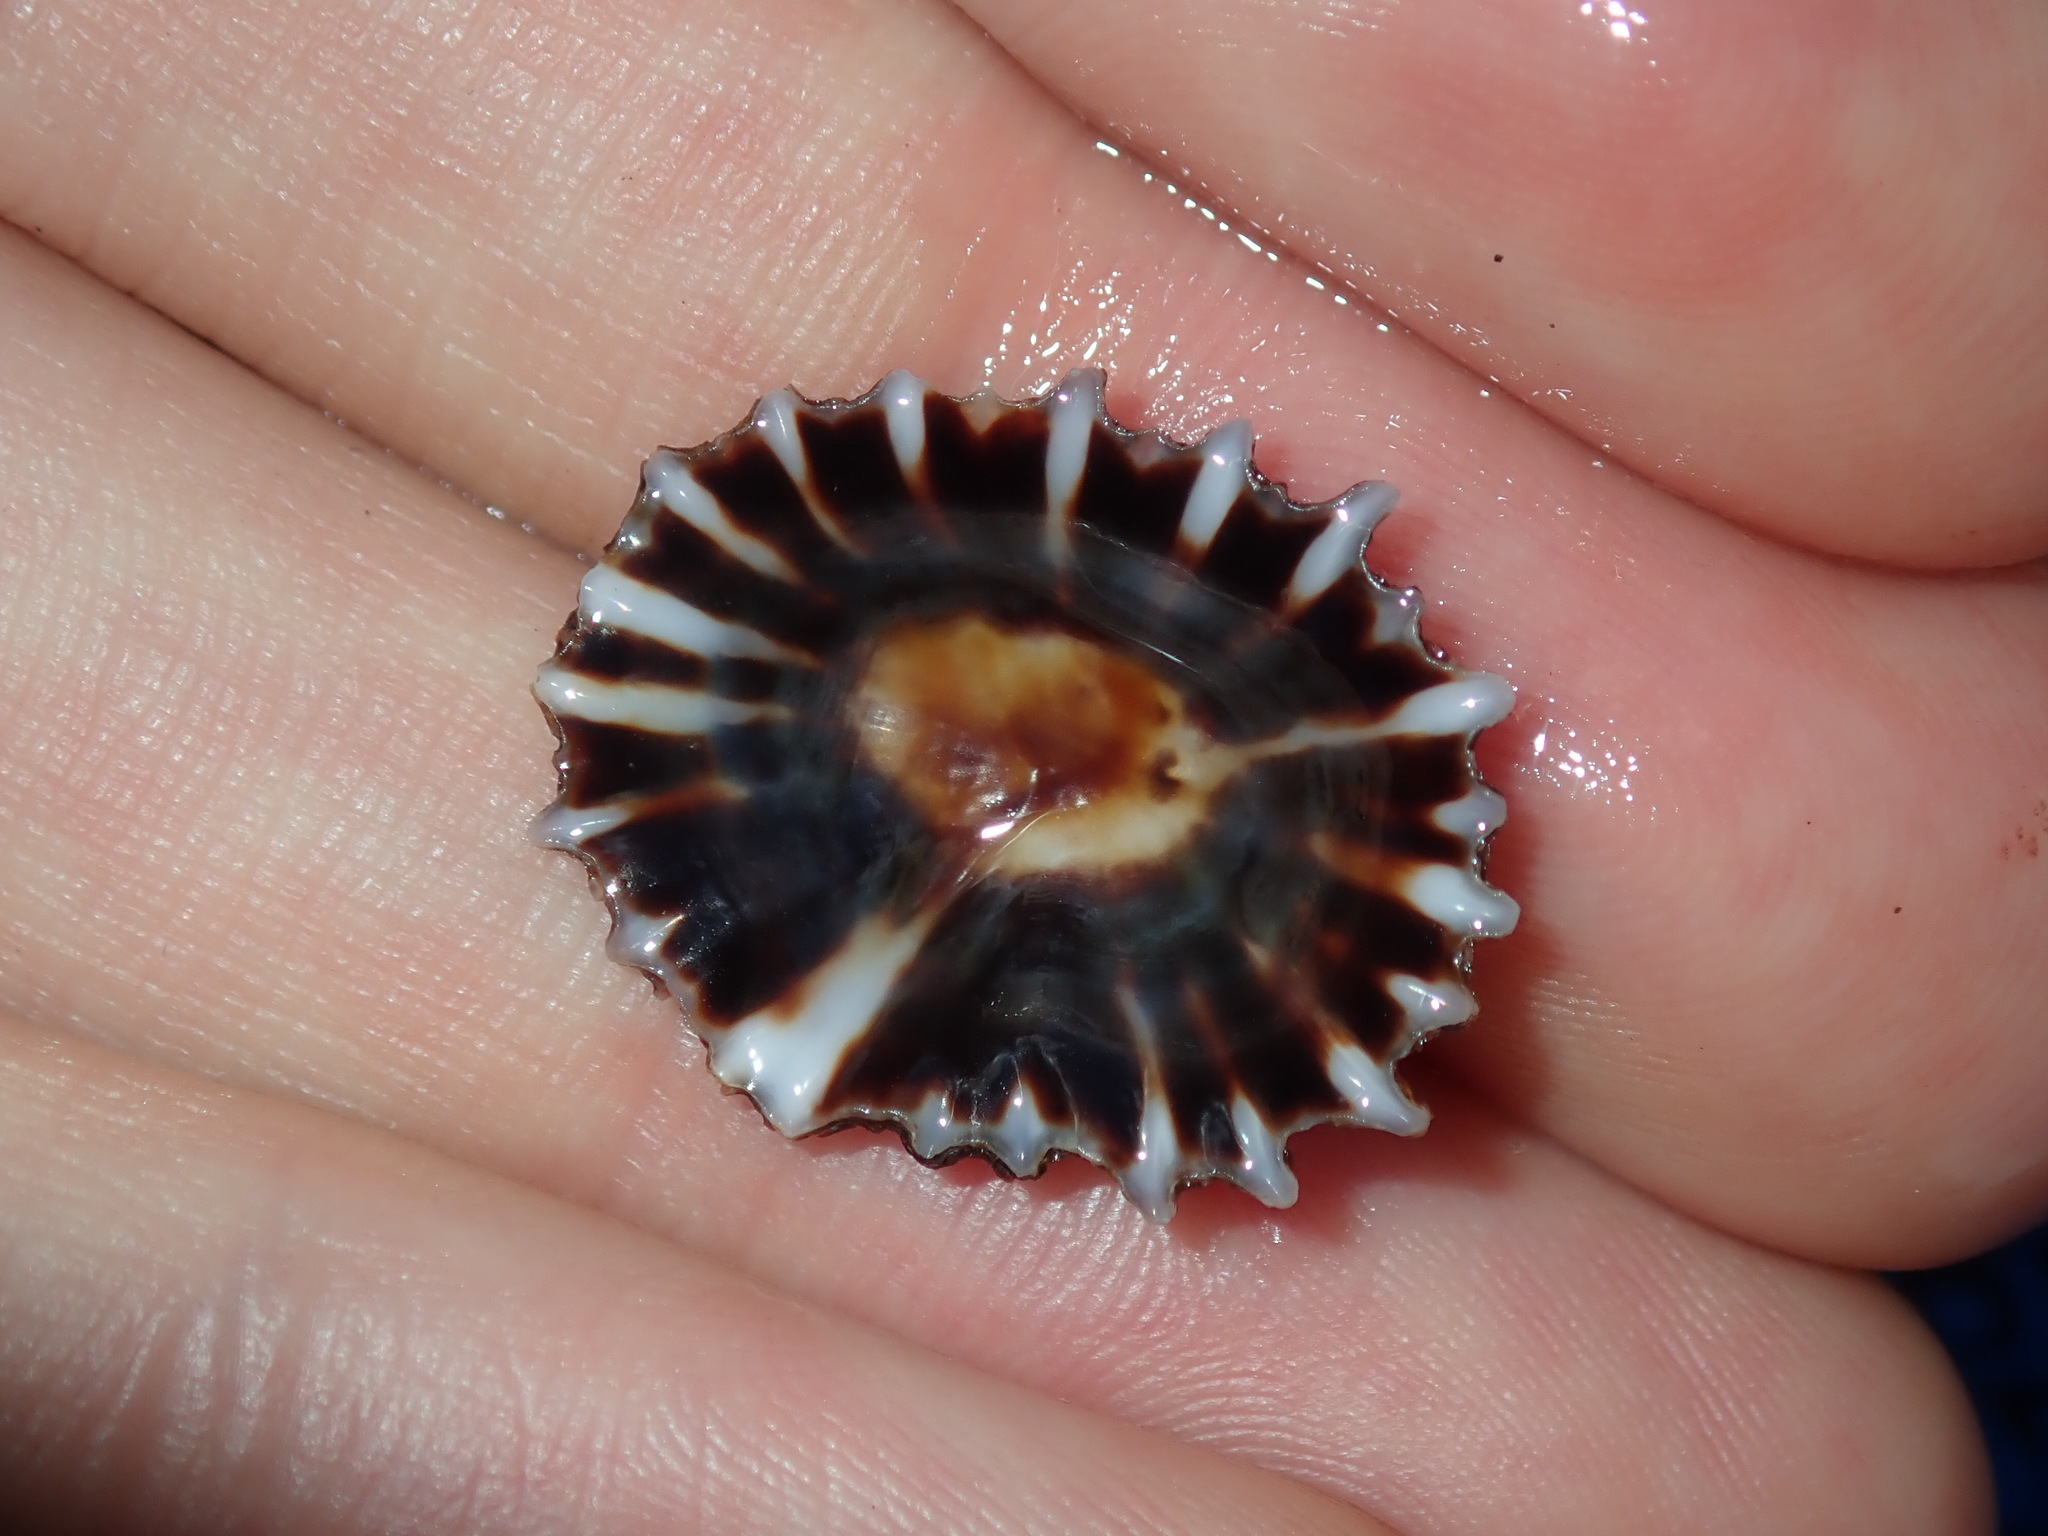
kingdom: Animalia
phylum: Mollusca
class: Gastropoda
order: Siphonariida
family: Siphonariidae
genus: Siphonaria
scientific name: Siphonaria denticulata
